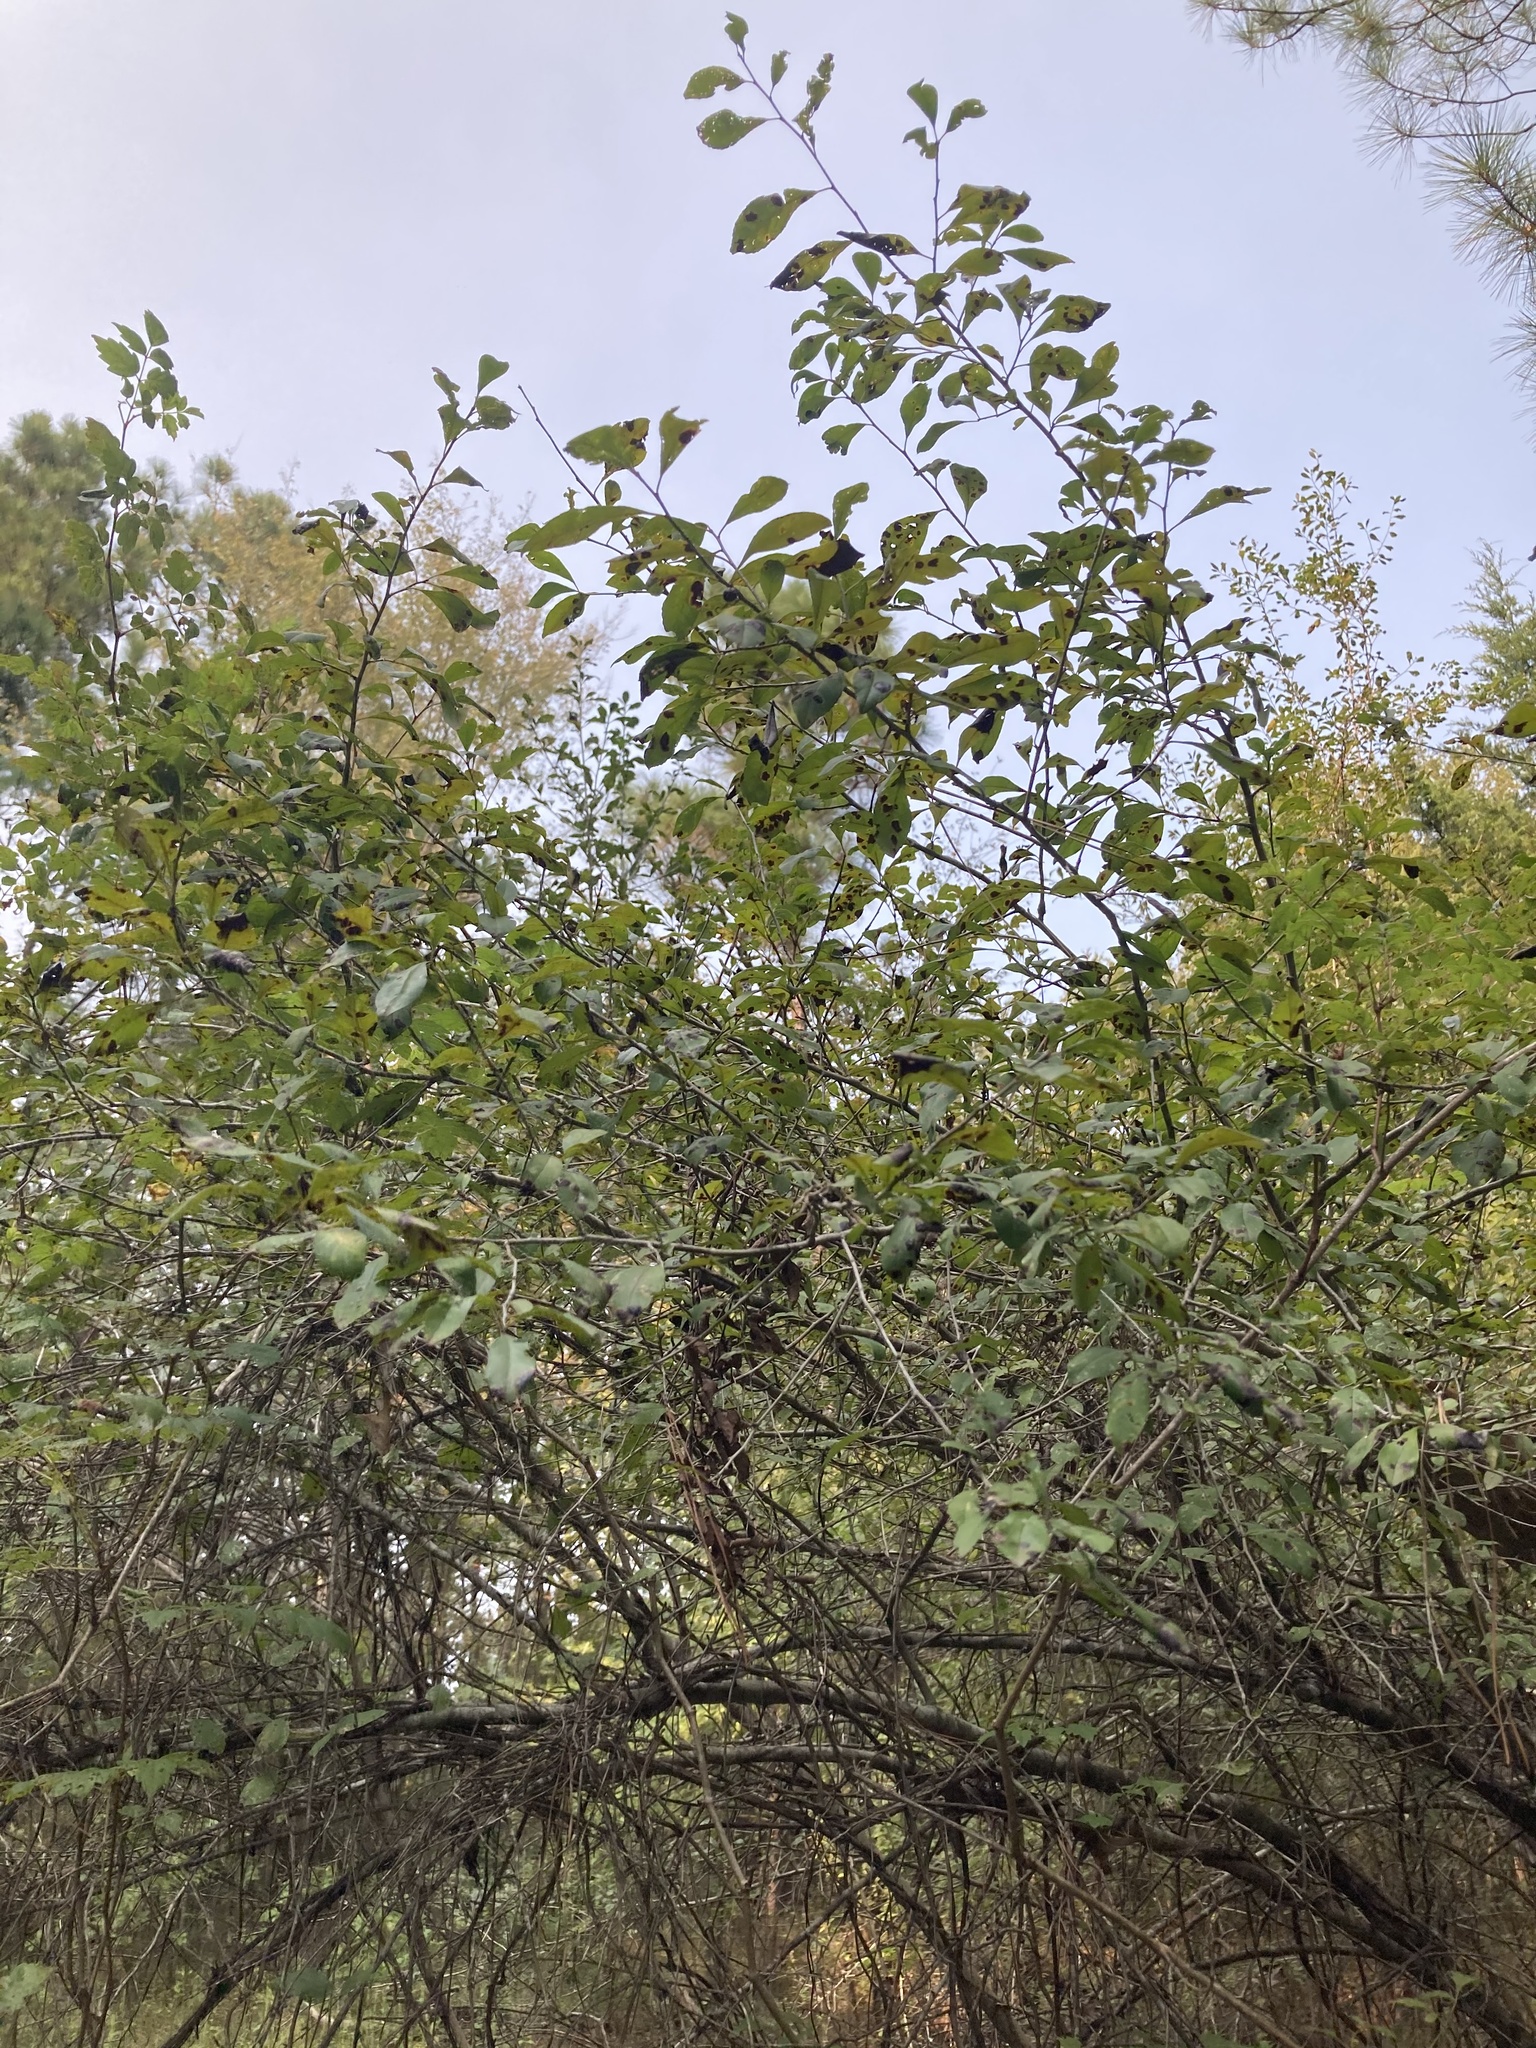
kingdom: Plantae
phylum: Tracheophyta
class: Magnoliopsida
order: Aquifoliales
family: Aquifoliaceae
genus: Ilex
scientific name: Ilex decidua
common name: Possum-haw
